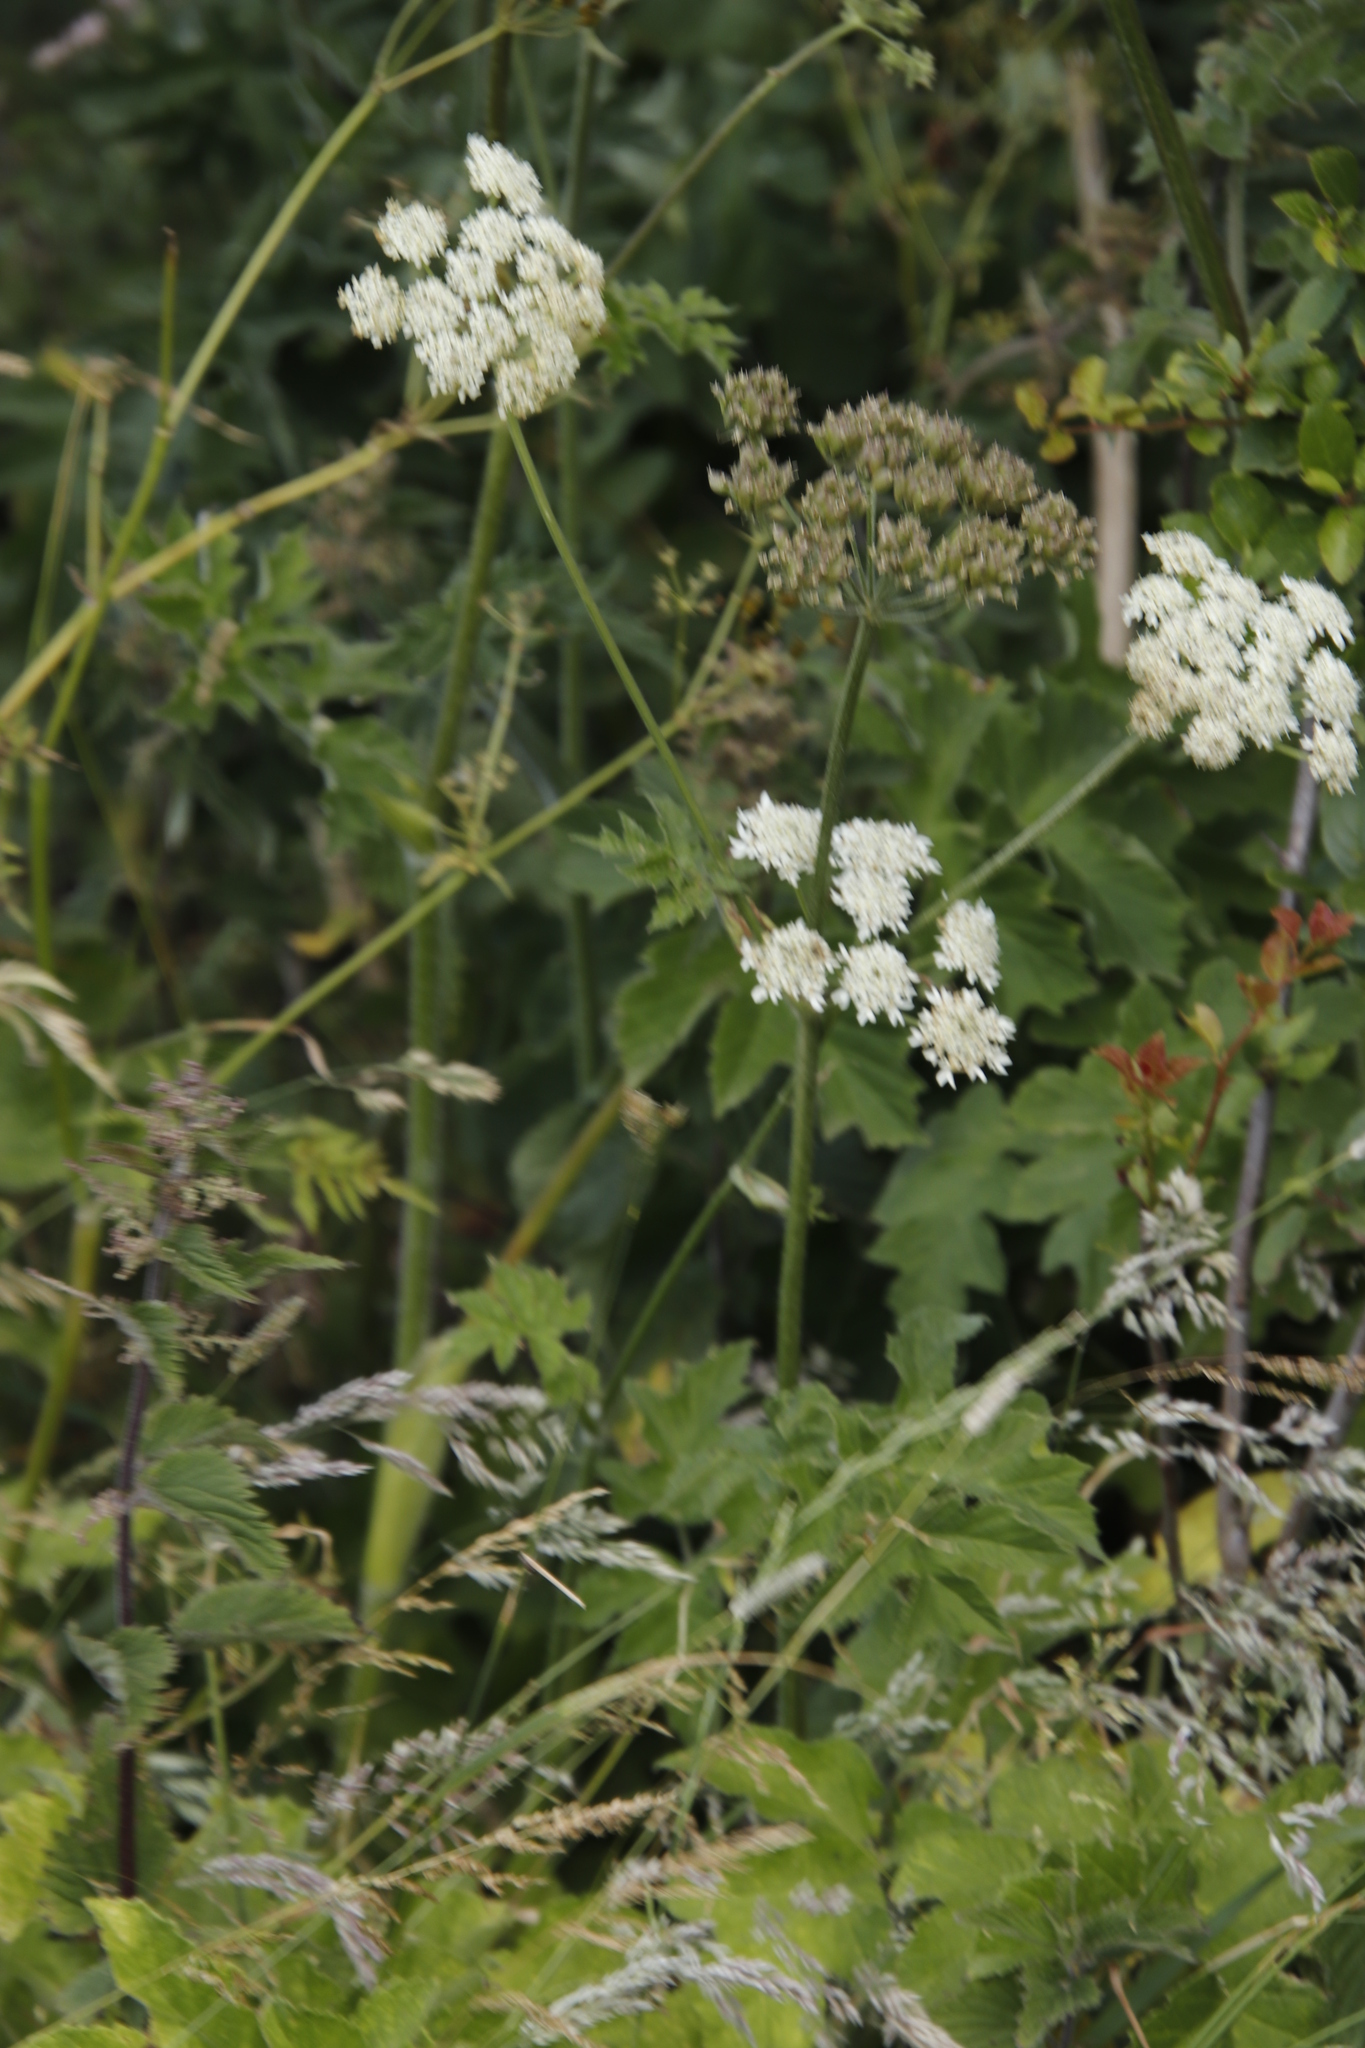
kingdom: Plantae
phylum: Tracheophyta
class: Magnoliopsida
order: Apiales
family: Apiaceae
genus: Heracleum
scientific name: Heracleum sphondylium
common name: Hogweed
